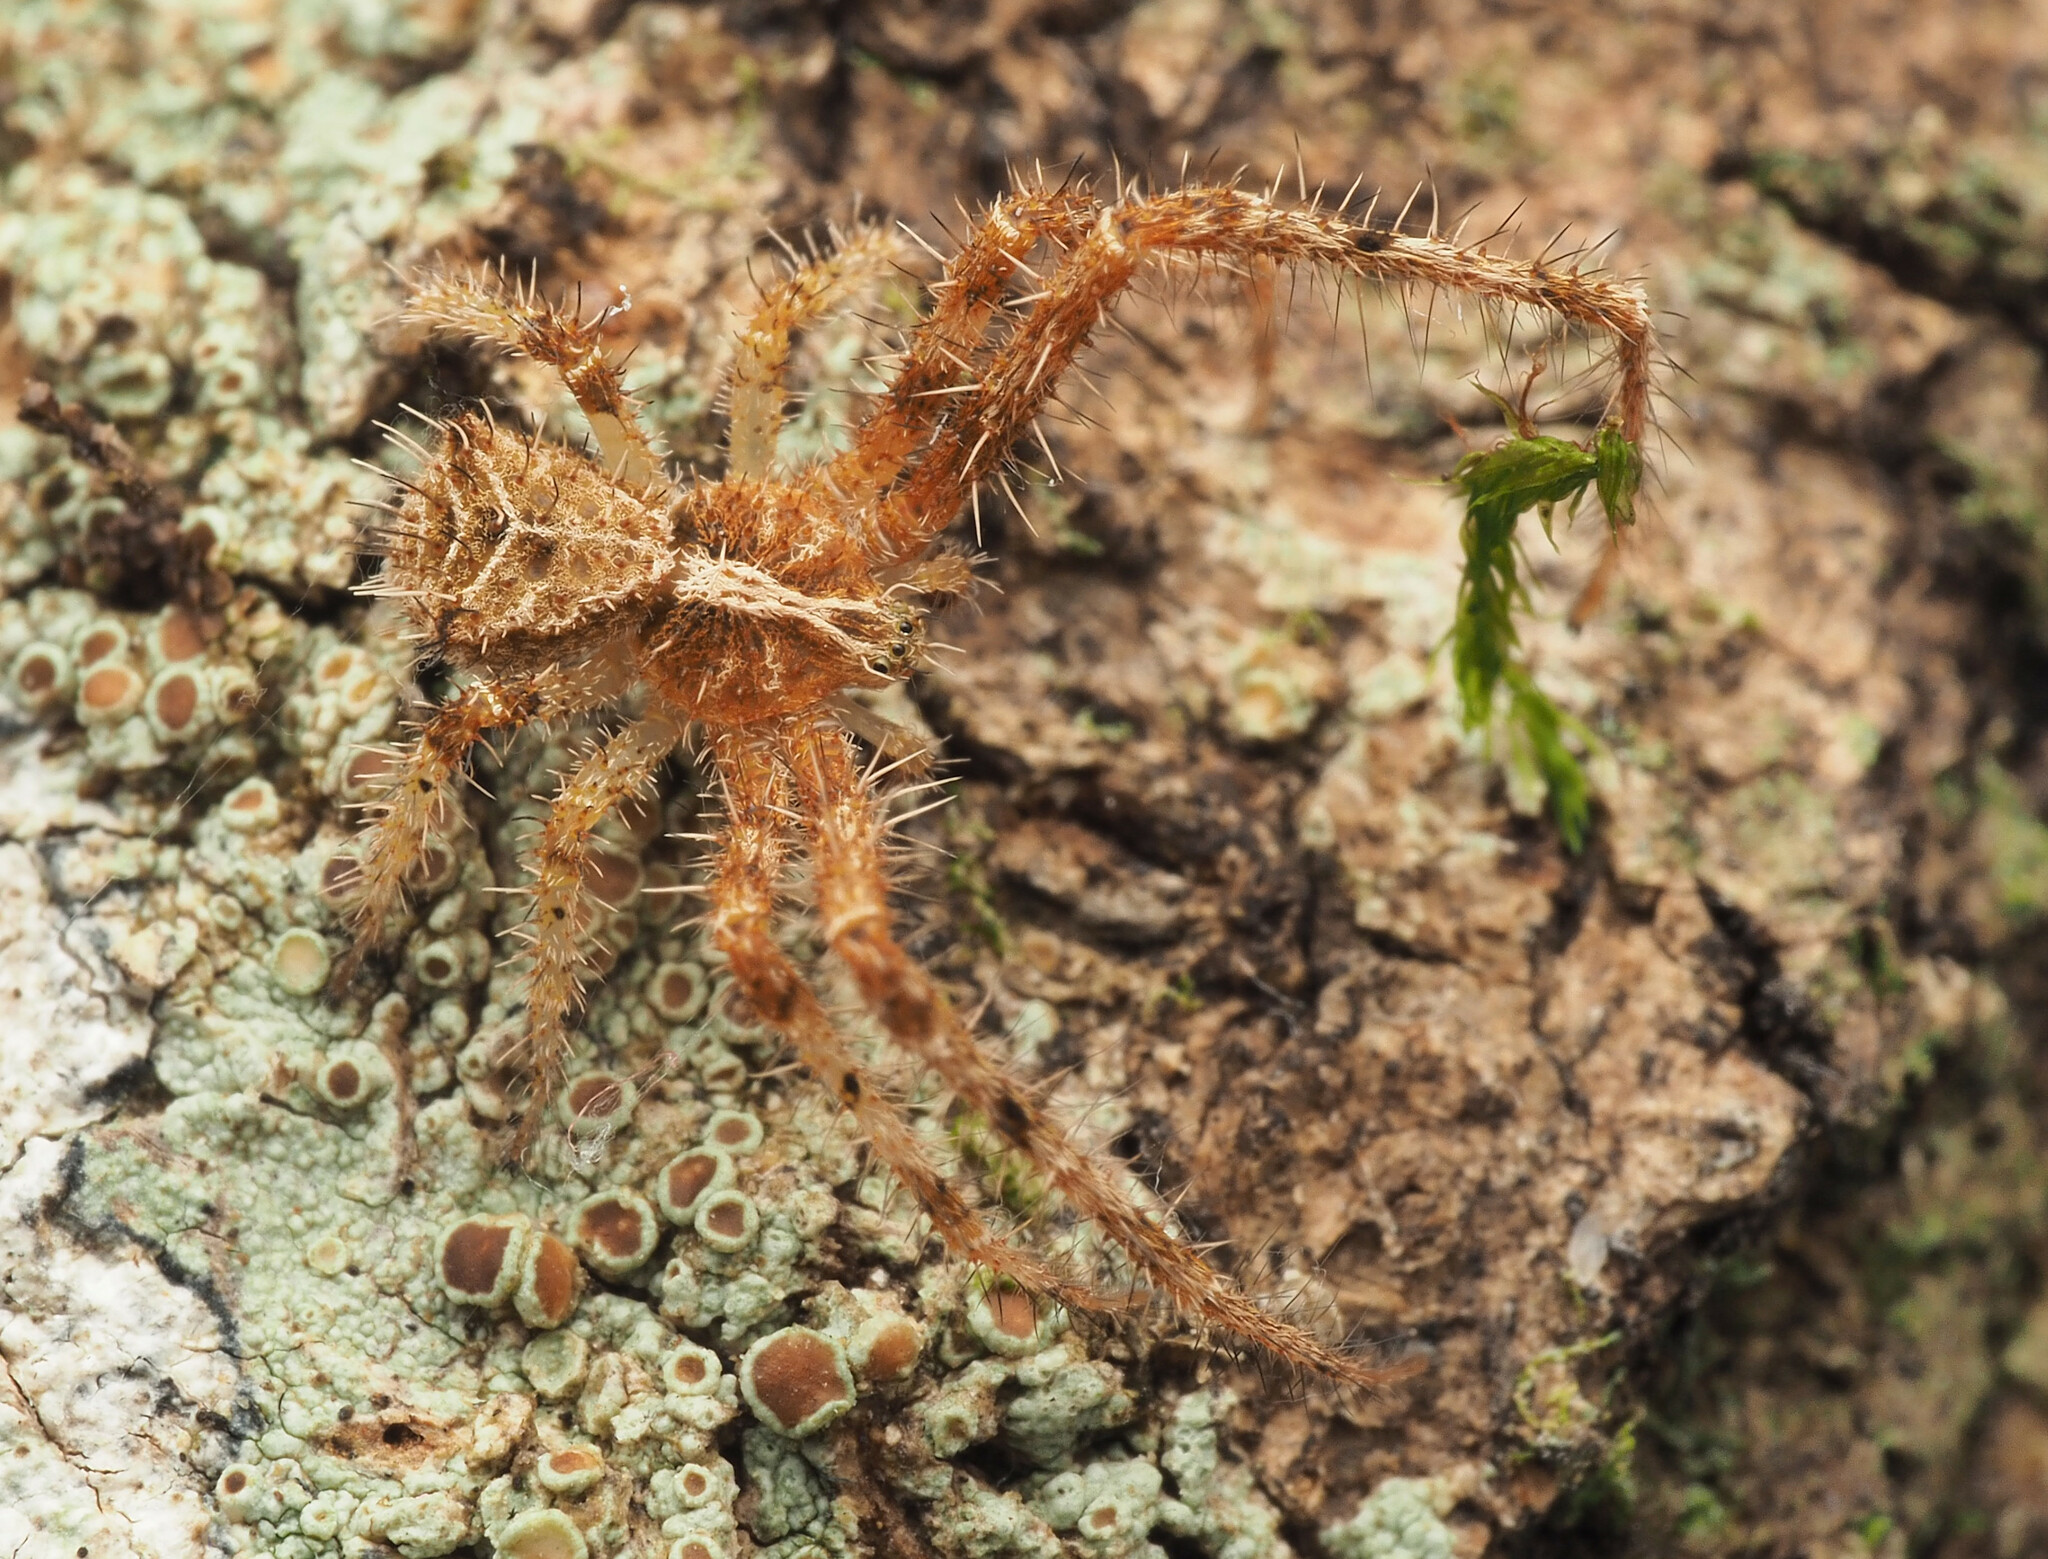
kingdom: Animalia
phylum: Arthropoda
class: Arachnida
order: Araneae
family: Thomisidae
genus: Sidymella
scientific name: Sidymella hirsuta
